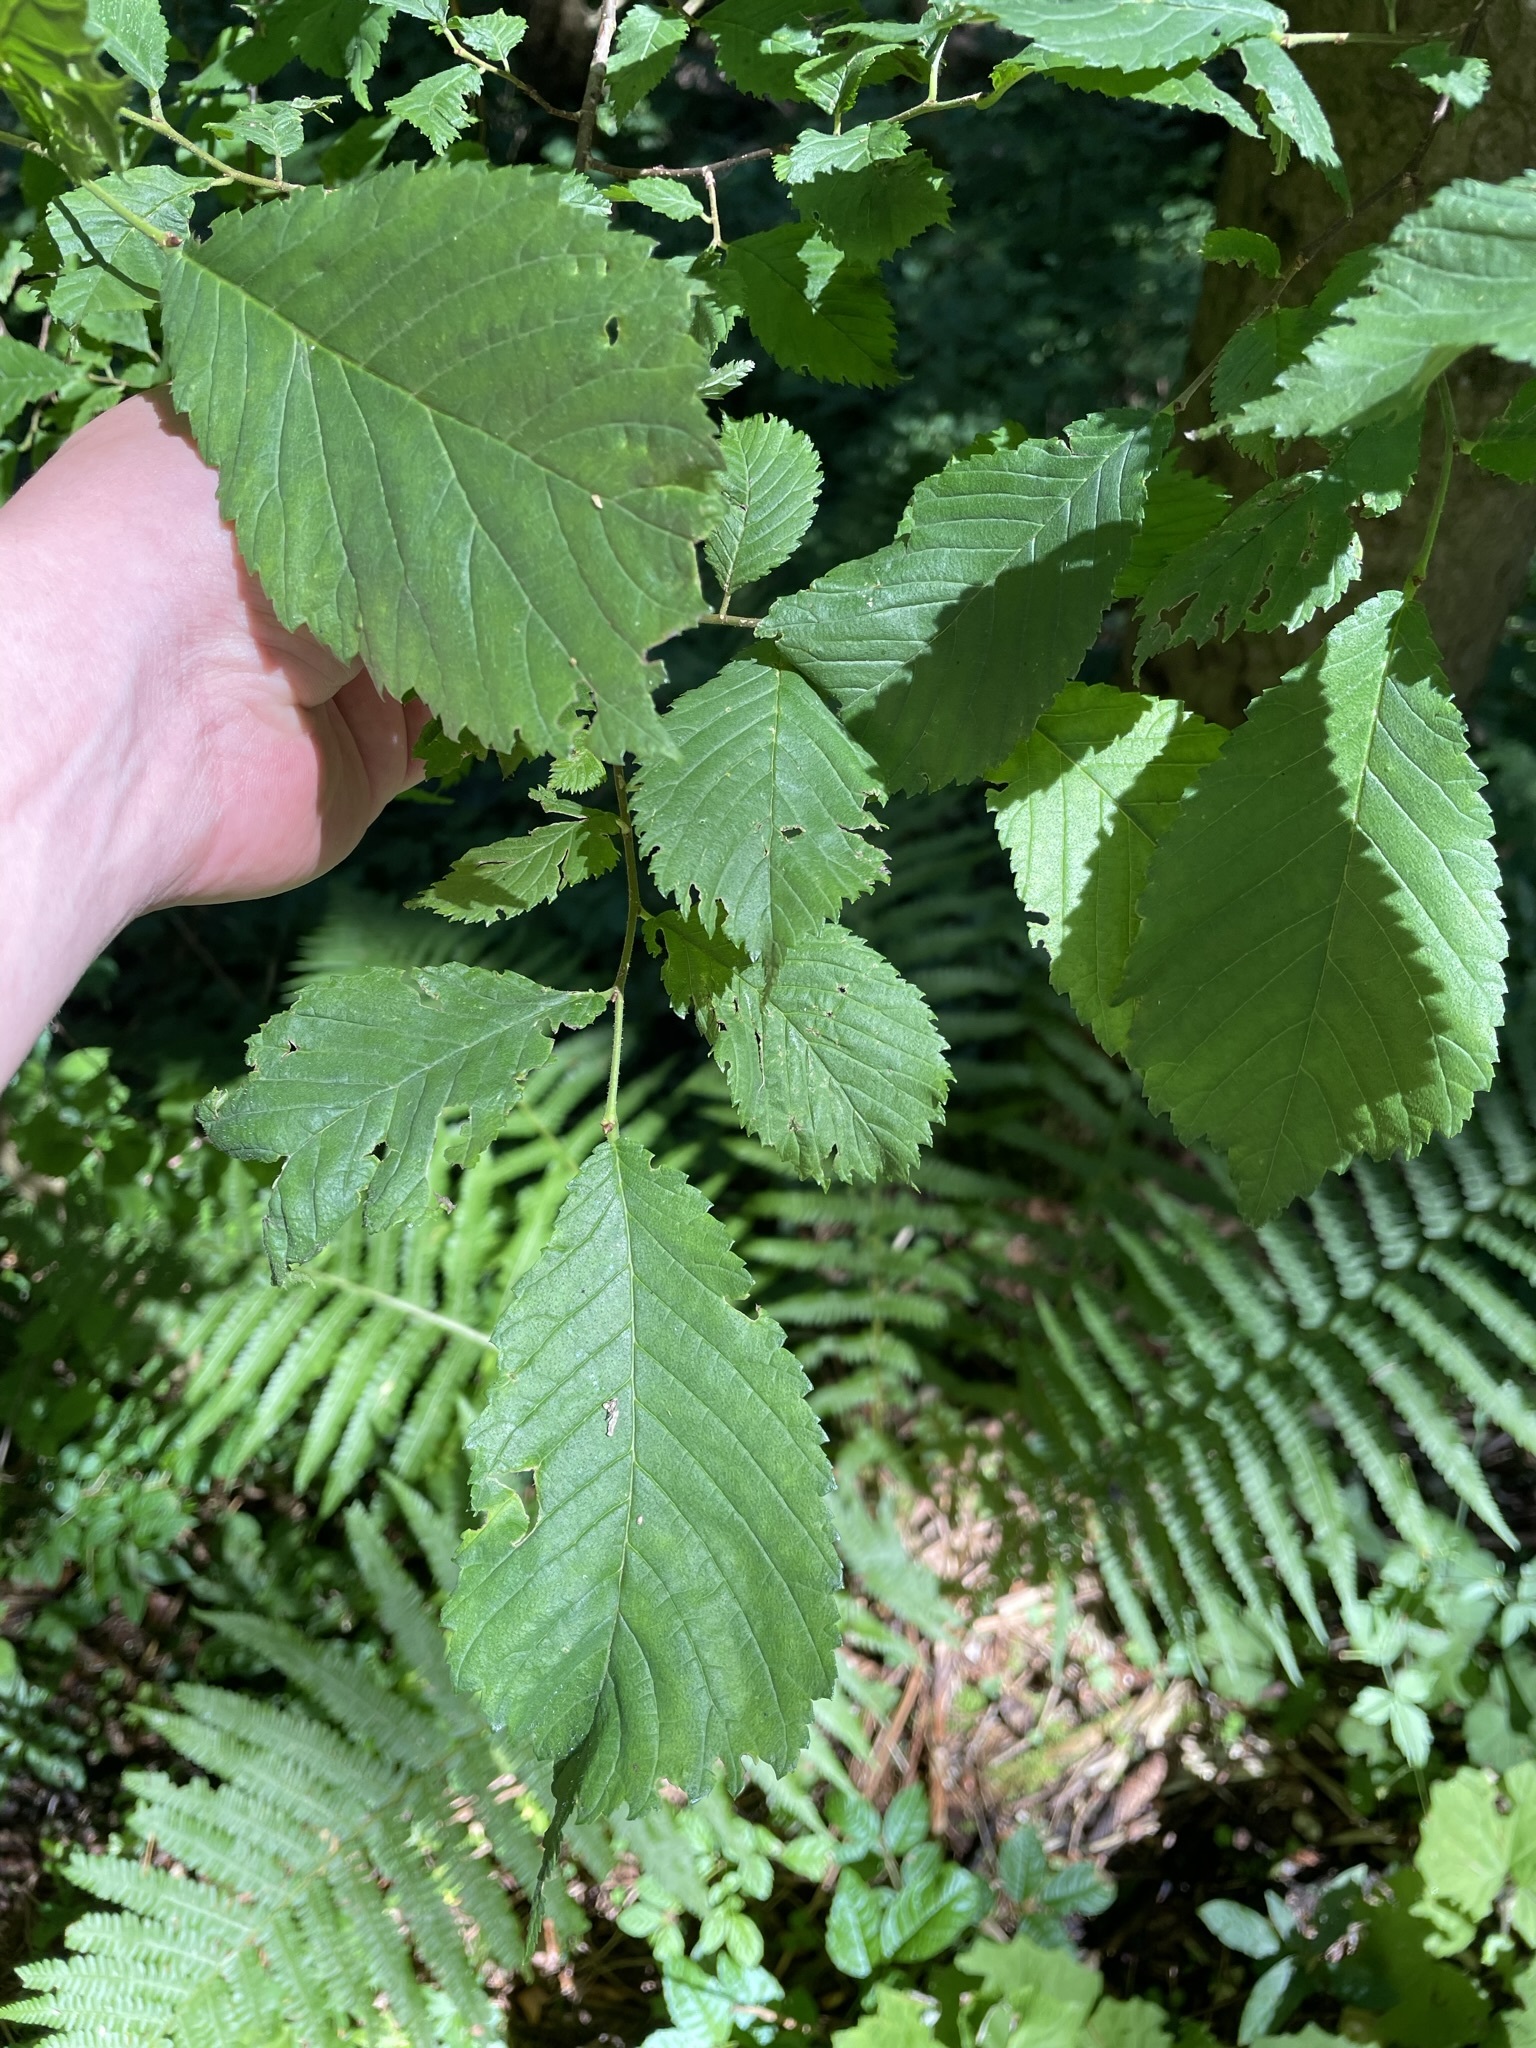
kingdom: Plantae
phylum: Tracheophyta
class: Magnoliopsida
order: Rosales
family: Ulmaceae
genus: Ulmus
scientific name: Ulmus glabra
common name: Wych elm
